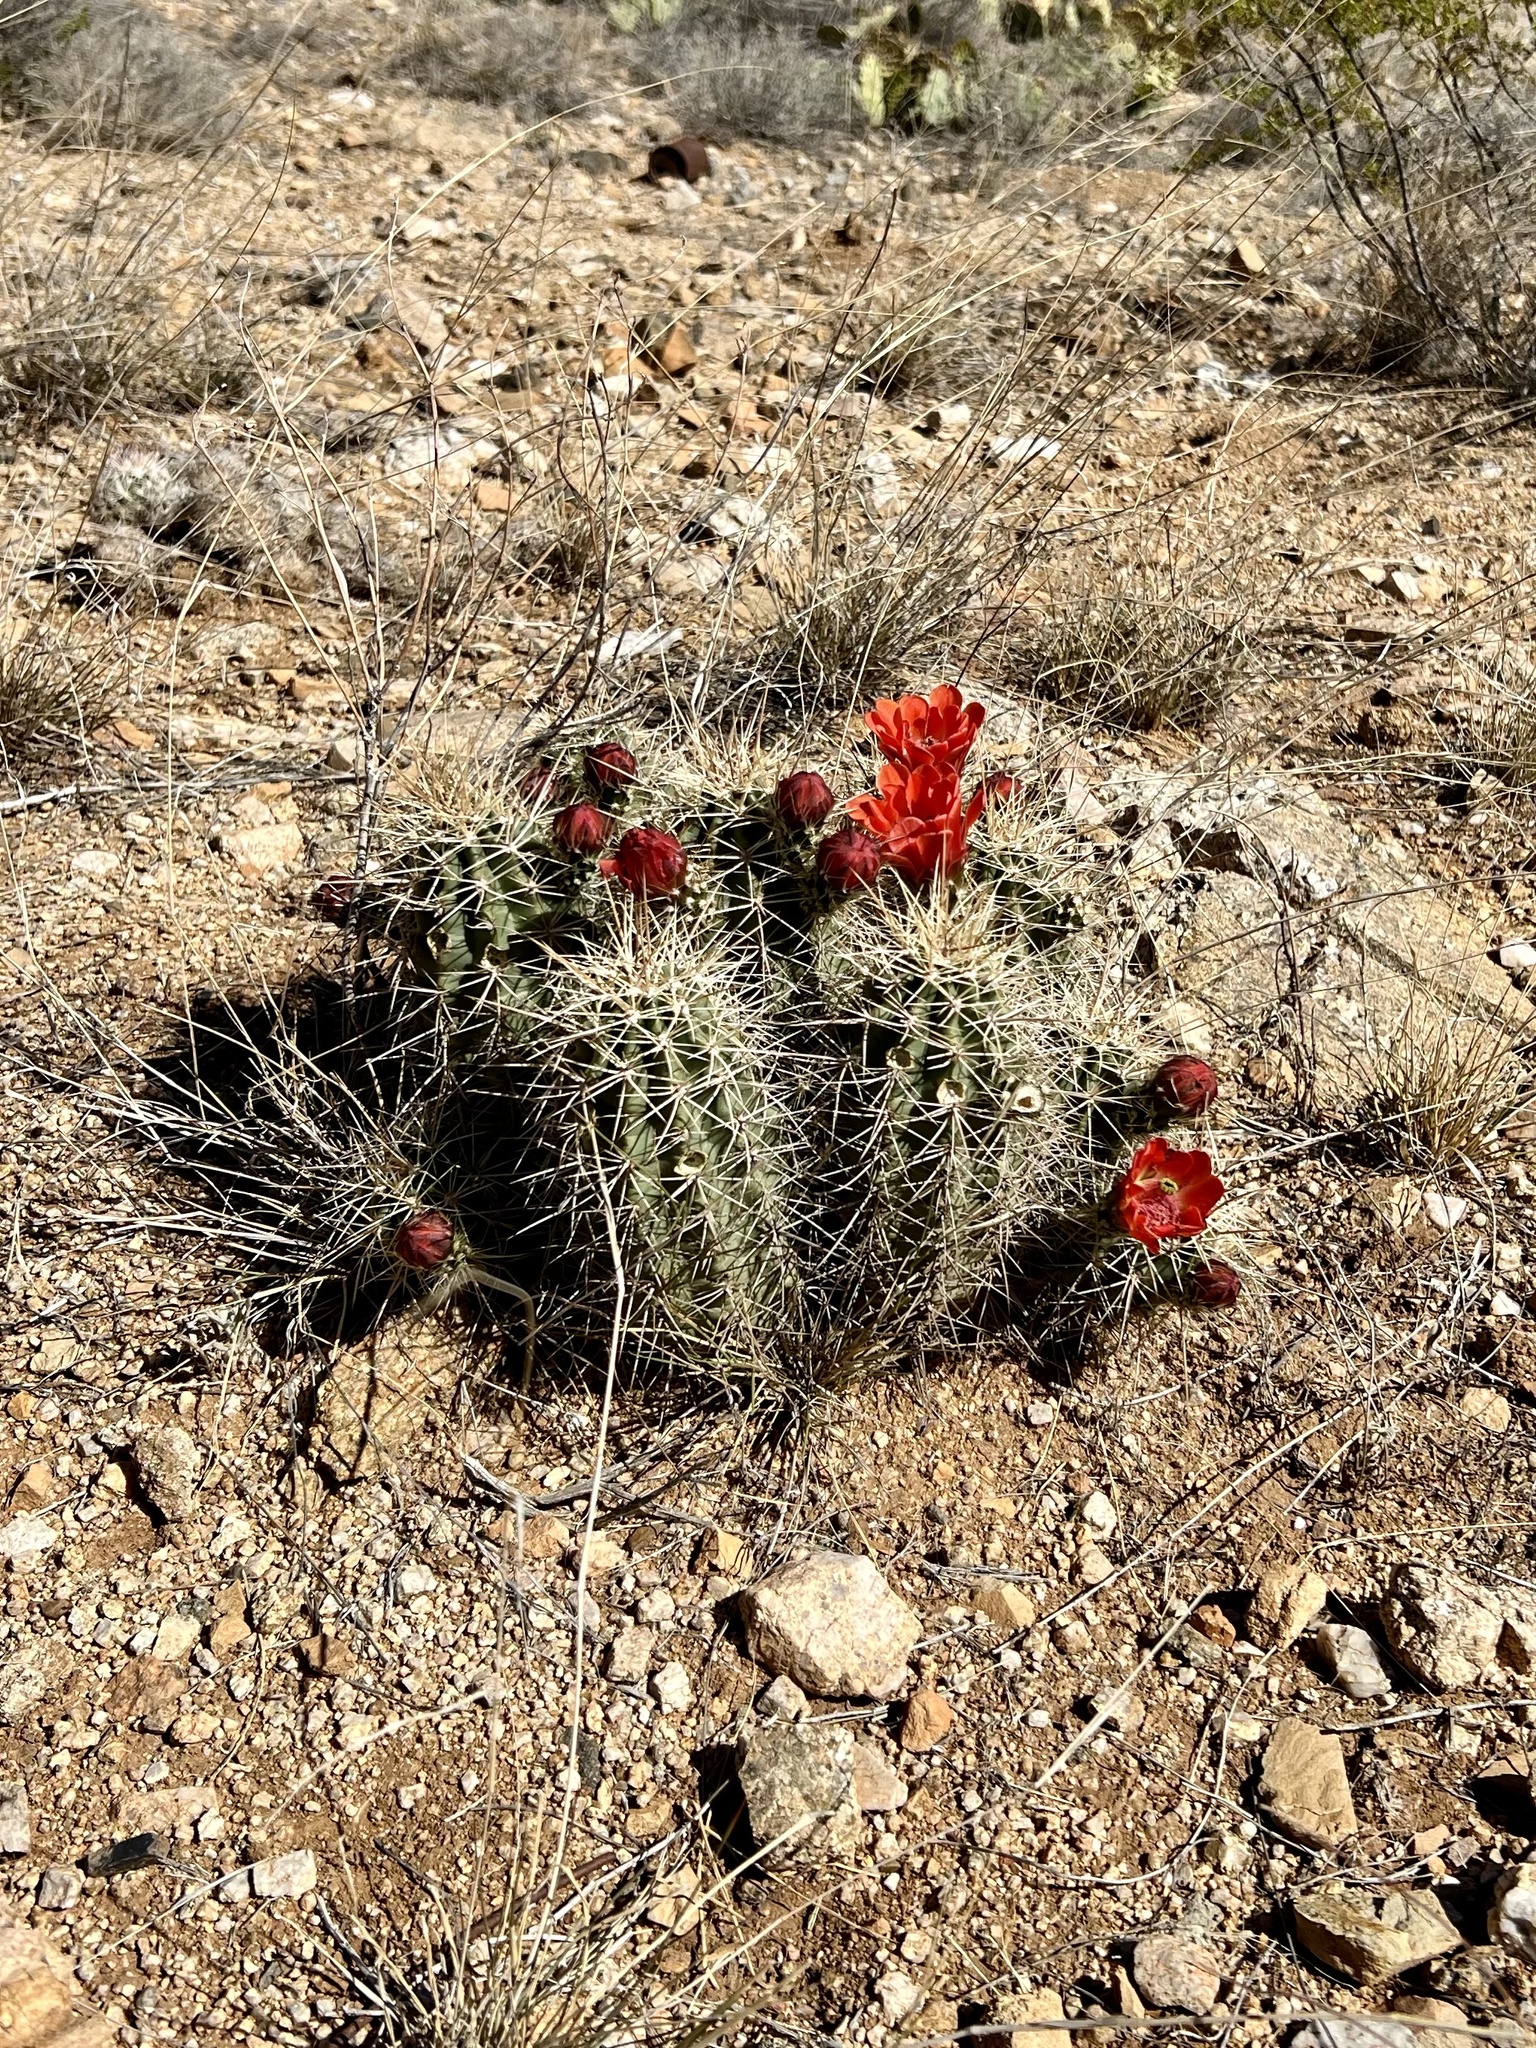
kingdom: Plantae
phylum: Tracheophyta
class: Magnoliopsida
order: Caryophyllales
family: Cactaceae
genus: Echinocereus
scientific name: Echinocereus coccineus
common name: Scarlet hedgehog cactus
